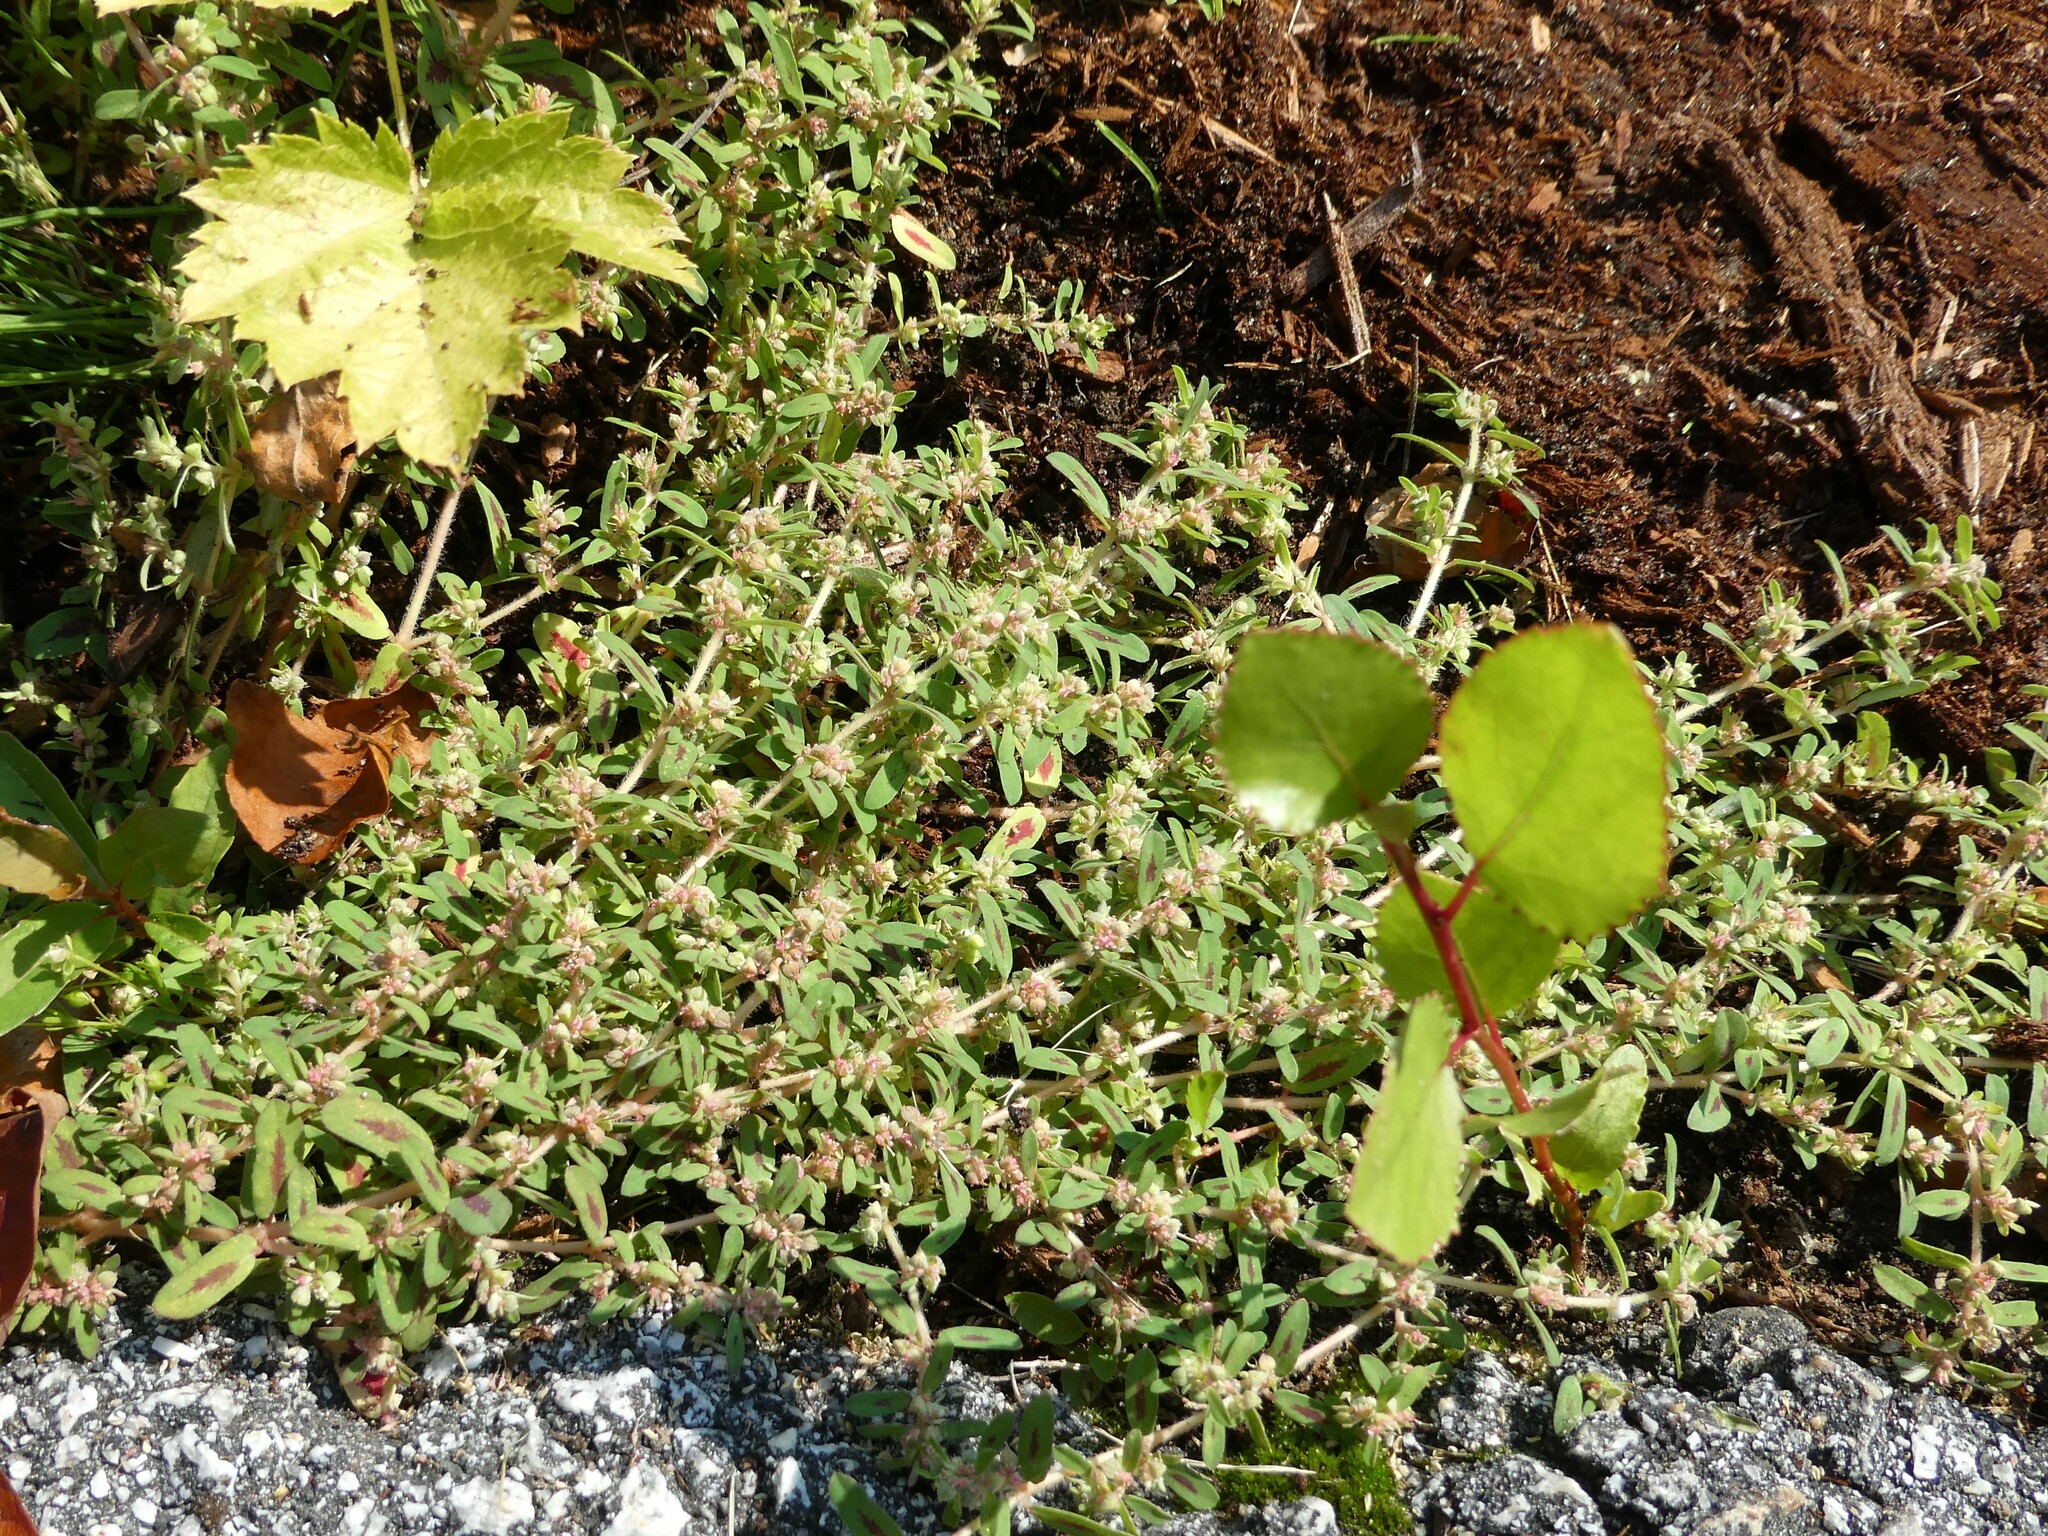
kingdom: Plantae
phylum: Tracheophyta
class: Magnoliopsida
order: Malpighiales
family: Euphorbiaceae
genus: Euphorbia
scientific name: Euphorbia maculata
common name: Spotted spurge
